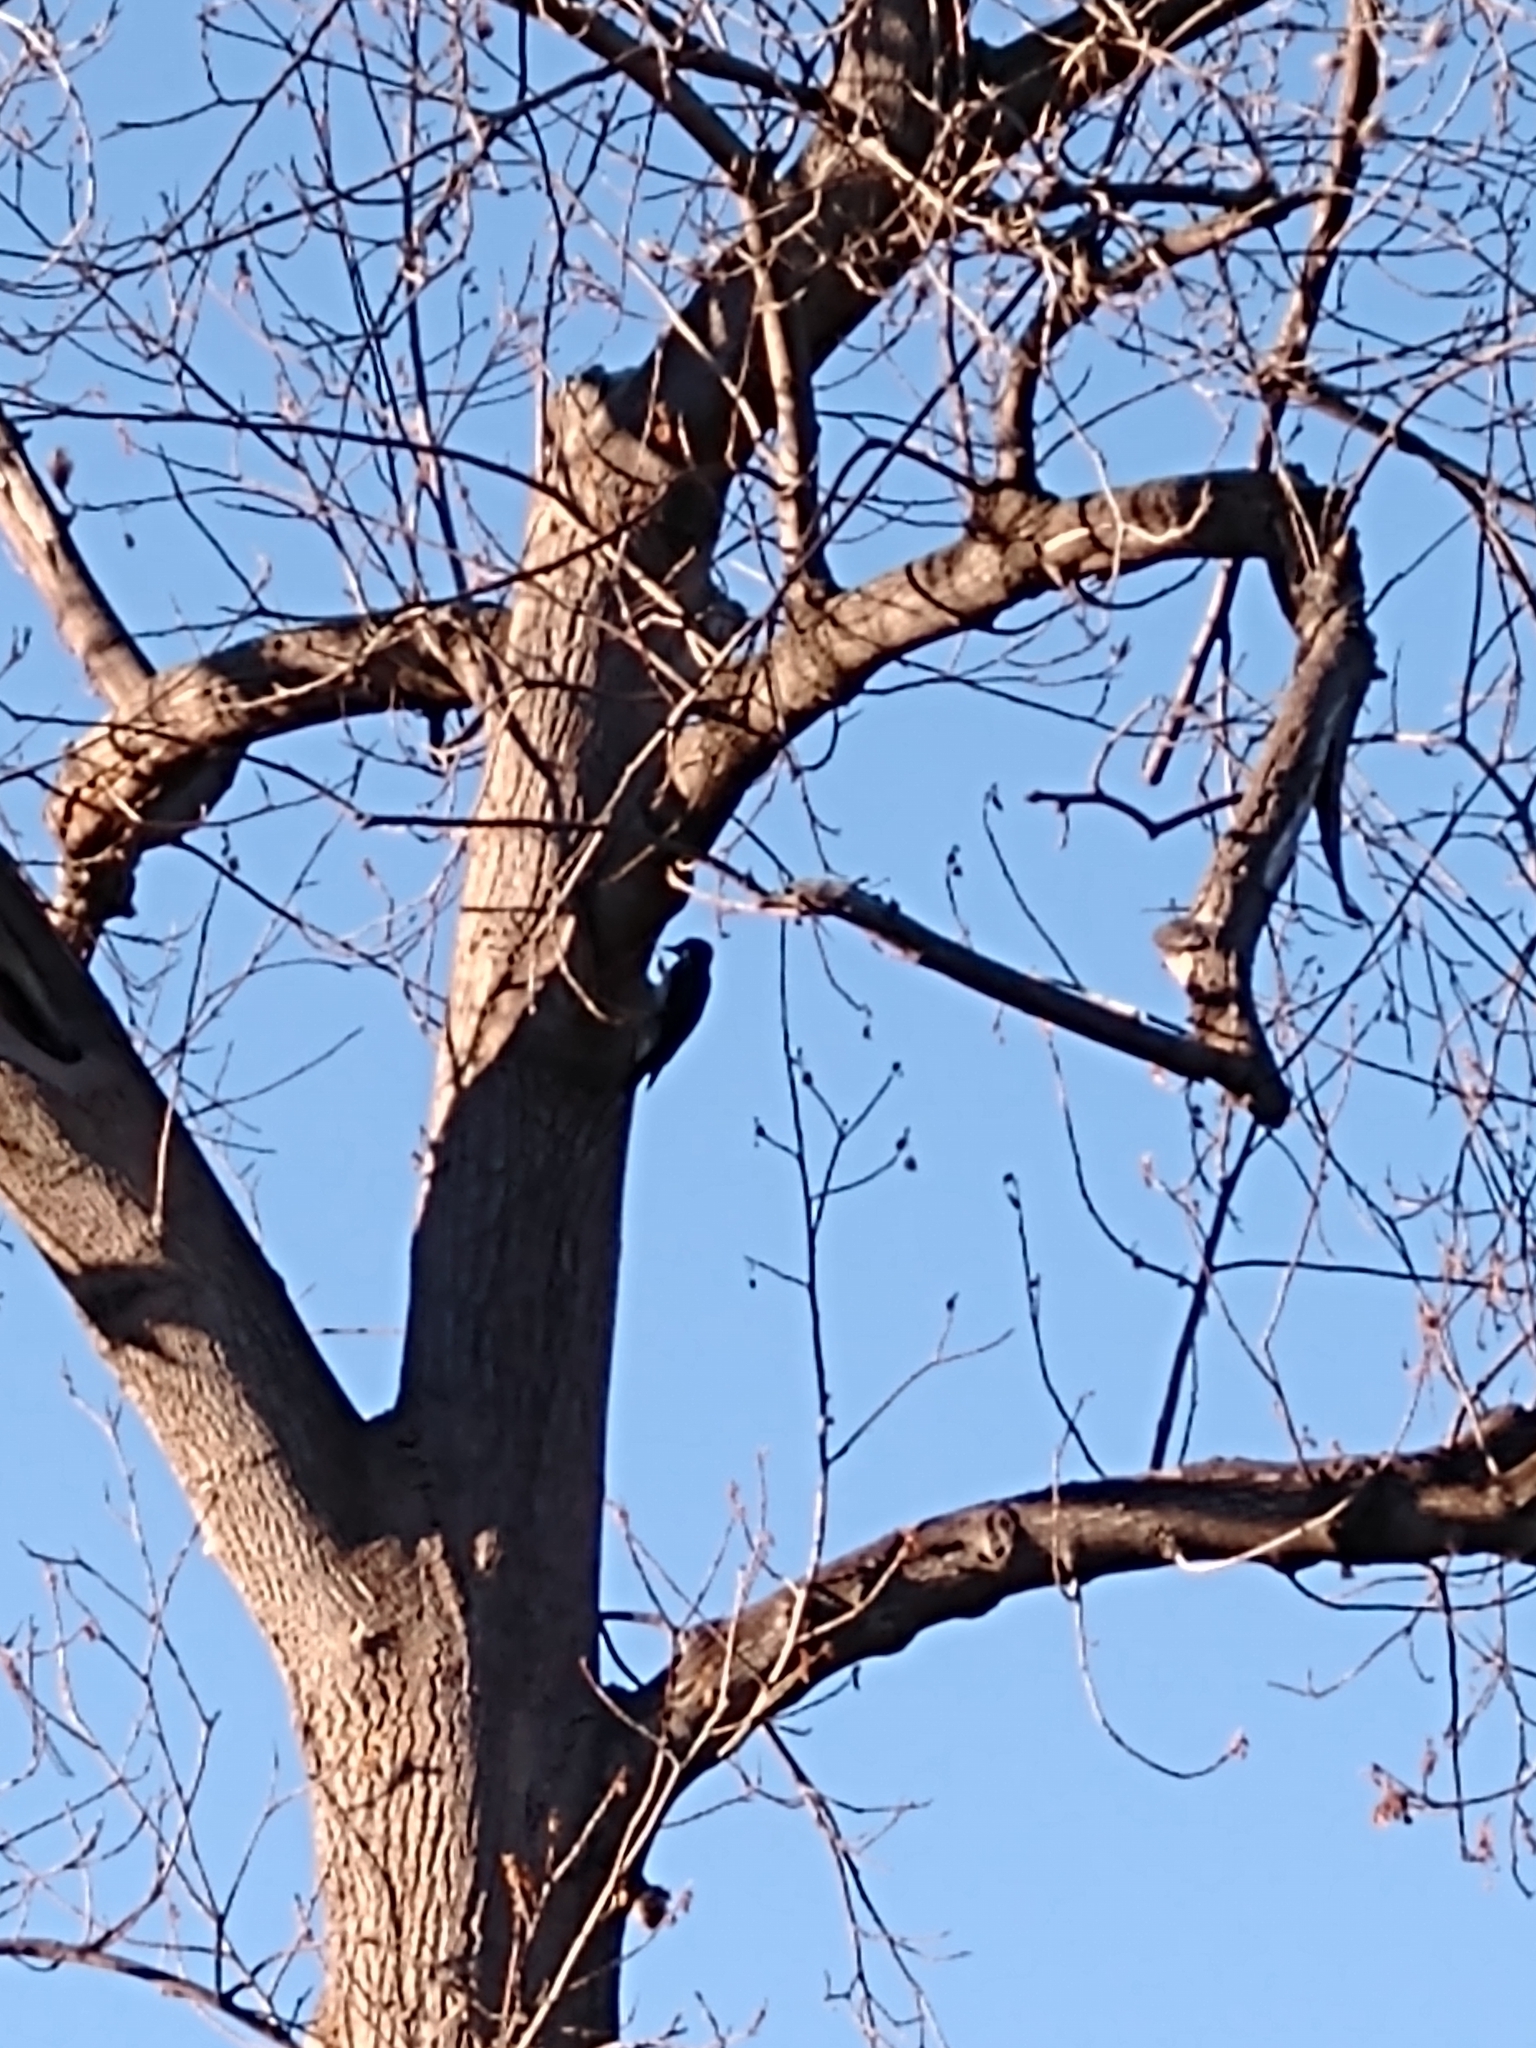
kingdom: Animalia
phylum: Chordata
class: Aves
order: Piciformes
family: Picidae
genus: Melanerpes
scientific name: Melanerpes formicivorus
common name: Acorn woodpecker
